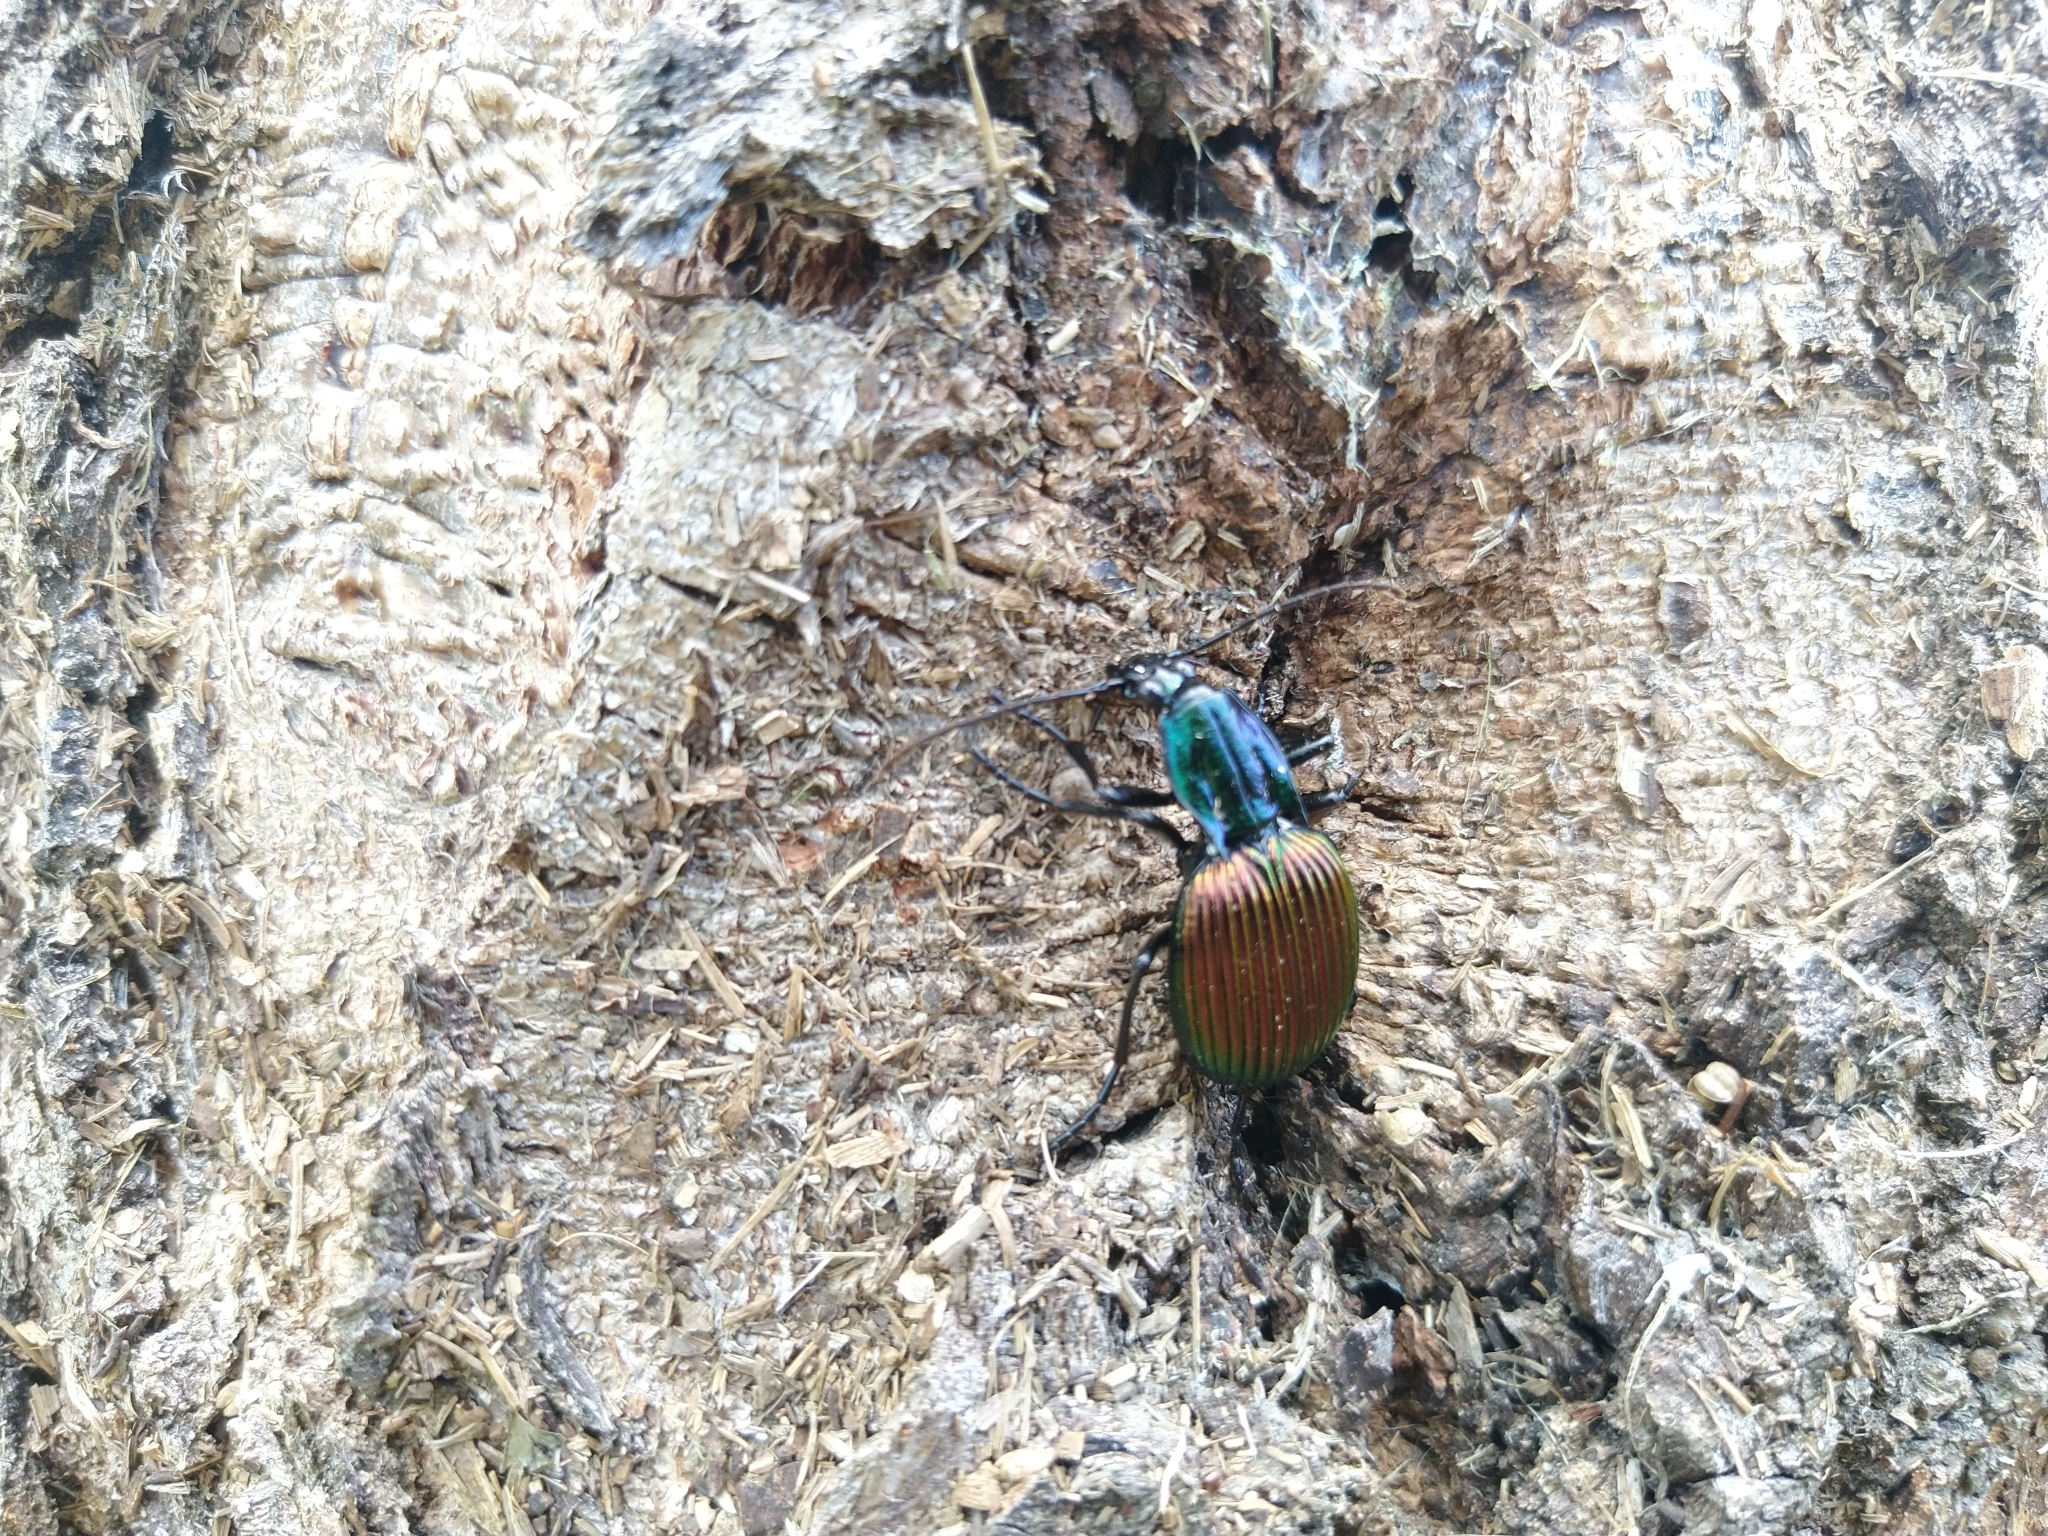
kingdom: Animalia
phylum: Arthropoda
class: Insecta
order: Coleoptera
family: Carabidae
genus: Brachygnathus
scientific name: Brachygnathus angusticollis
